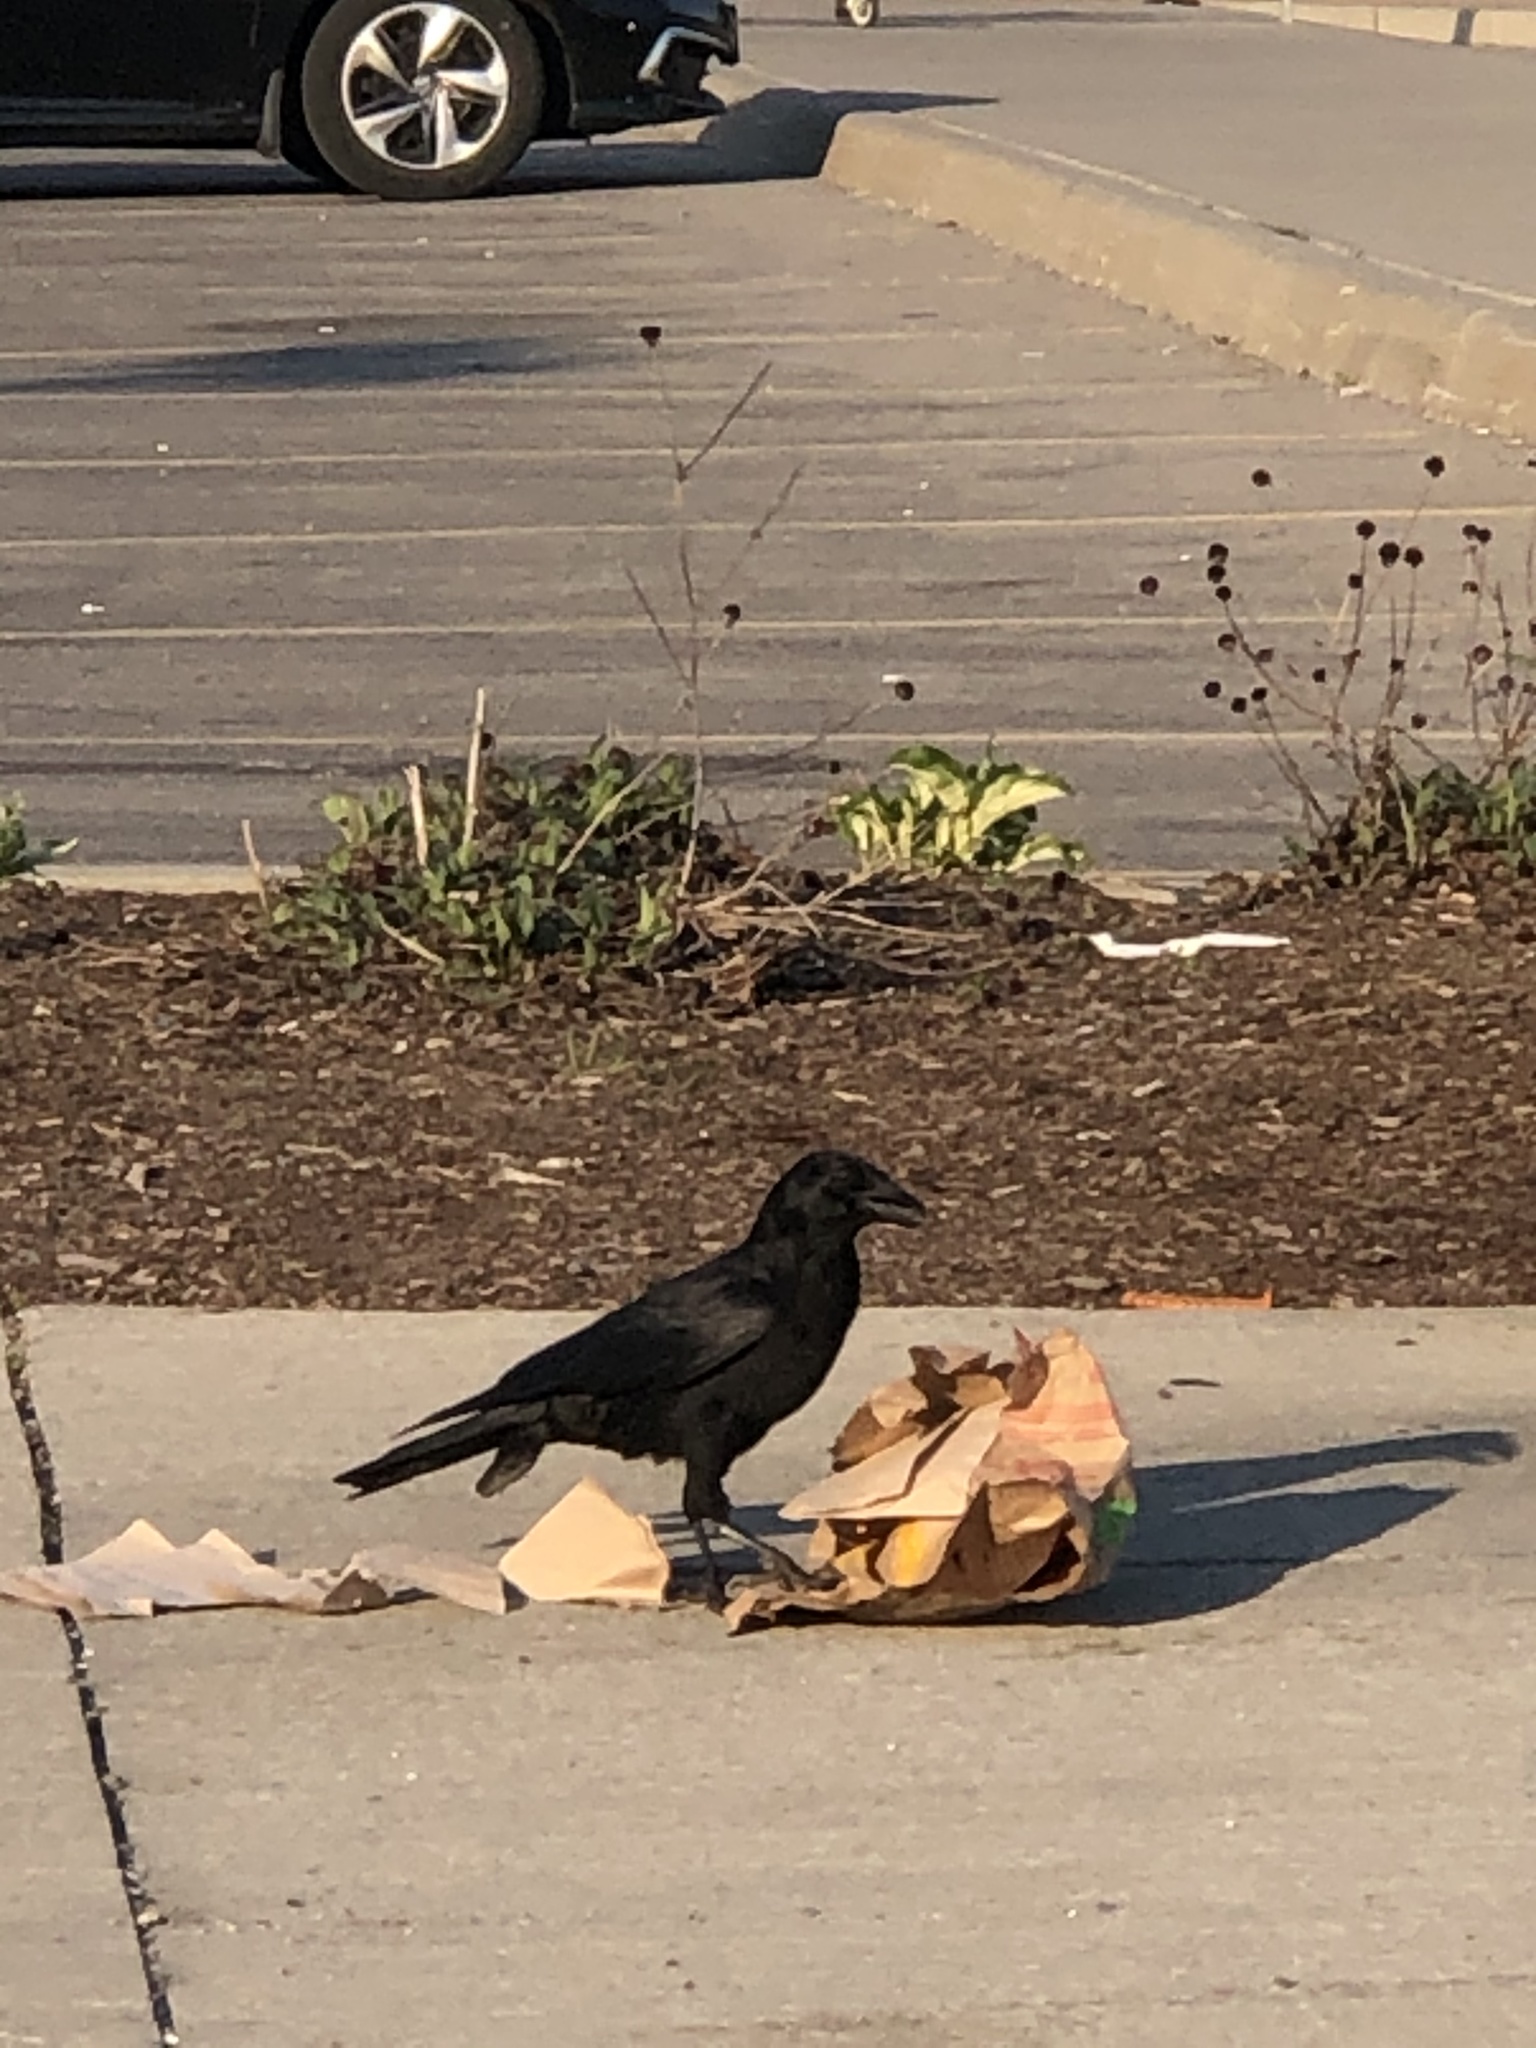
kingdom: Animalia
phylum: Chordata
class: Aves
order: Passeriformes
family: Corvidae
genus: Corvus
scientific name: Corvus brachyrhynchos
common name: American crow
